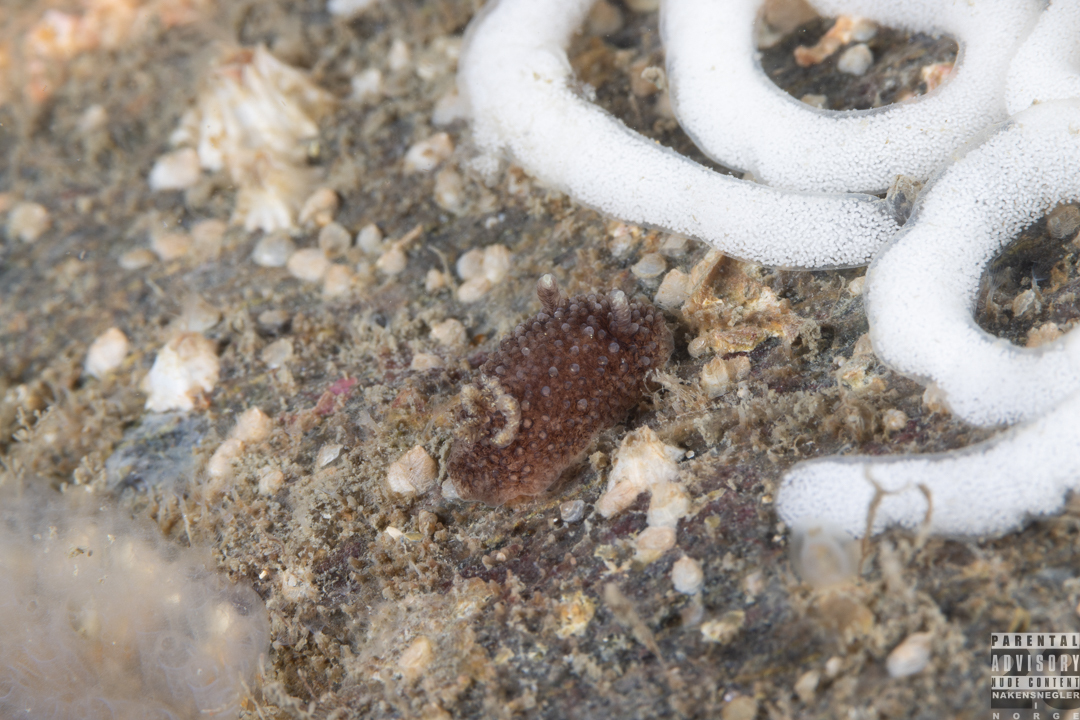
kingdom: Animalia
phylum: Mollusca
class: Gastropoda
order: Nudibranchia
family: Onchidorididae
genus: Acanthodoris
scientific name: Acanthodoris pilosa
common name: Hairy spiny doris
